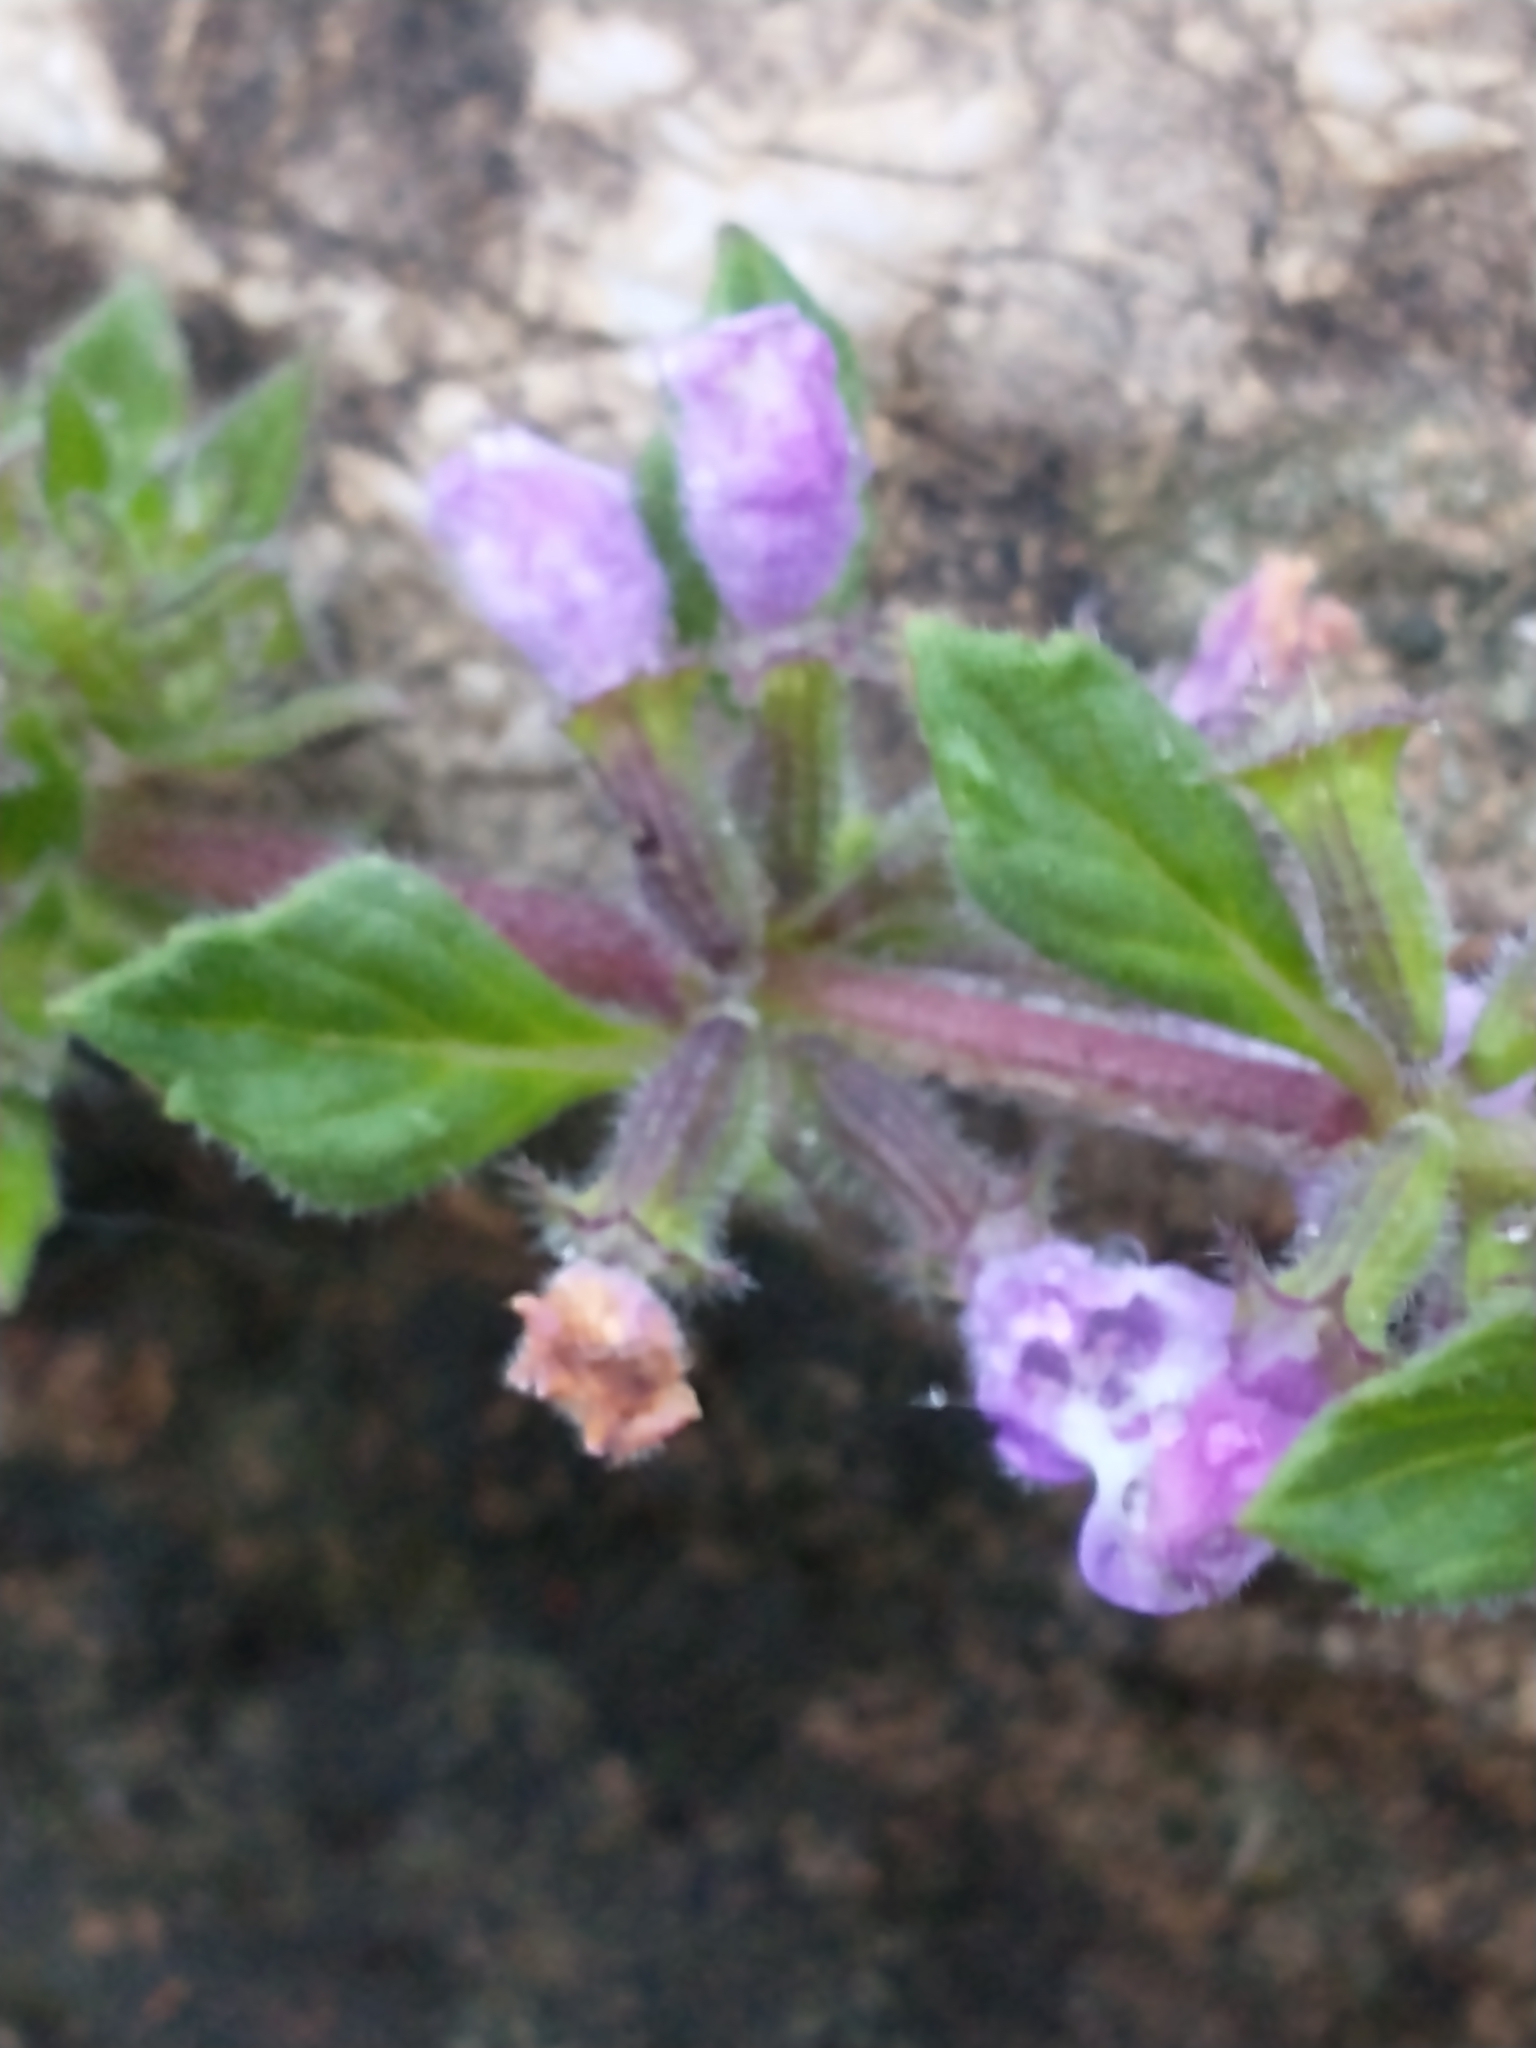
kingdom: Plantae
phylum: Tracheophyta
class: Magnoliopsida
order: Lamiales
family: Lamiaceae
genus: Clinopodium
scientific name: Clinopodium acinos
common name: Basil thyme
